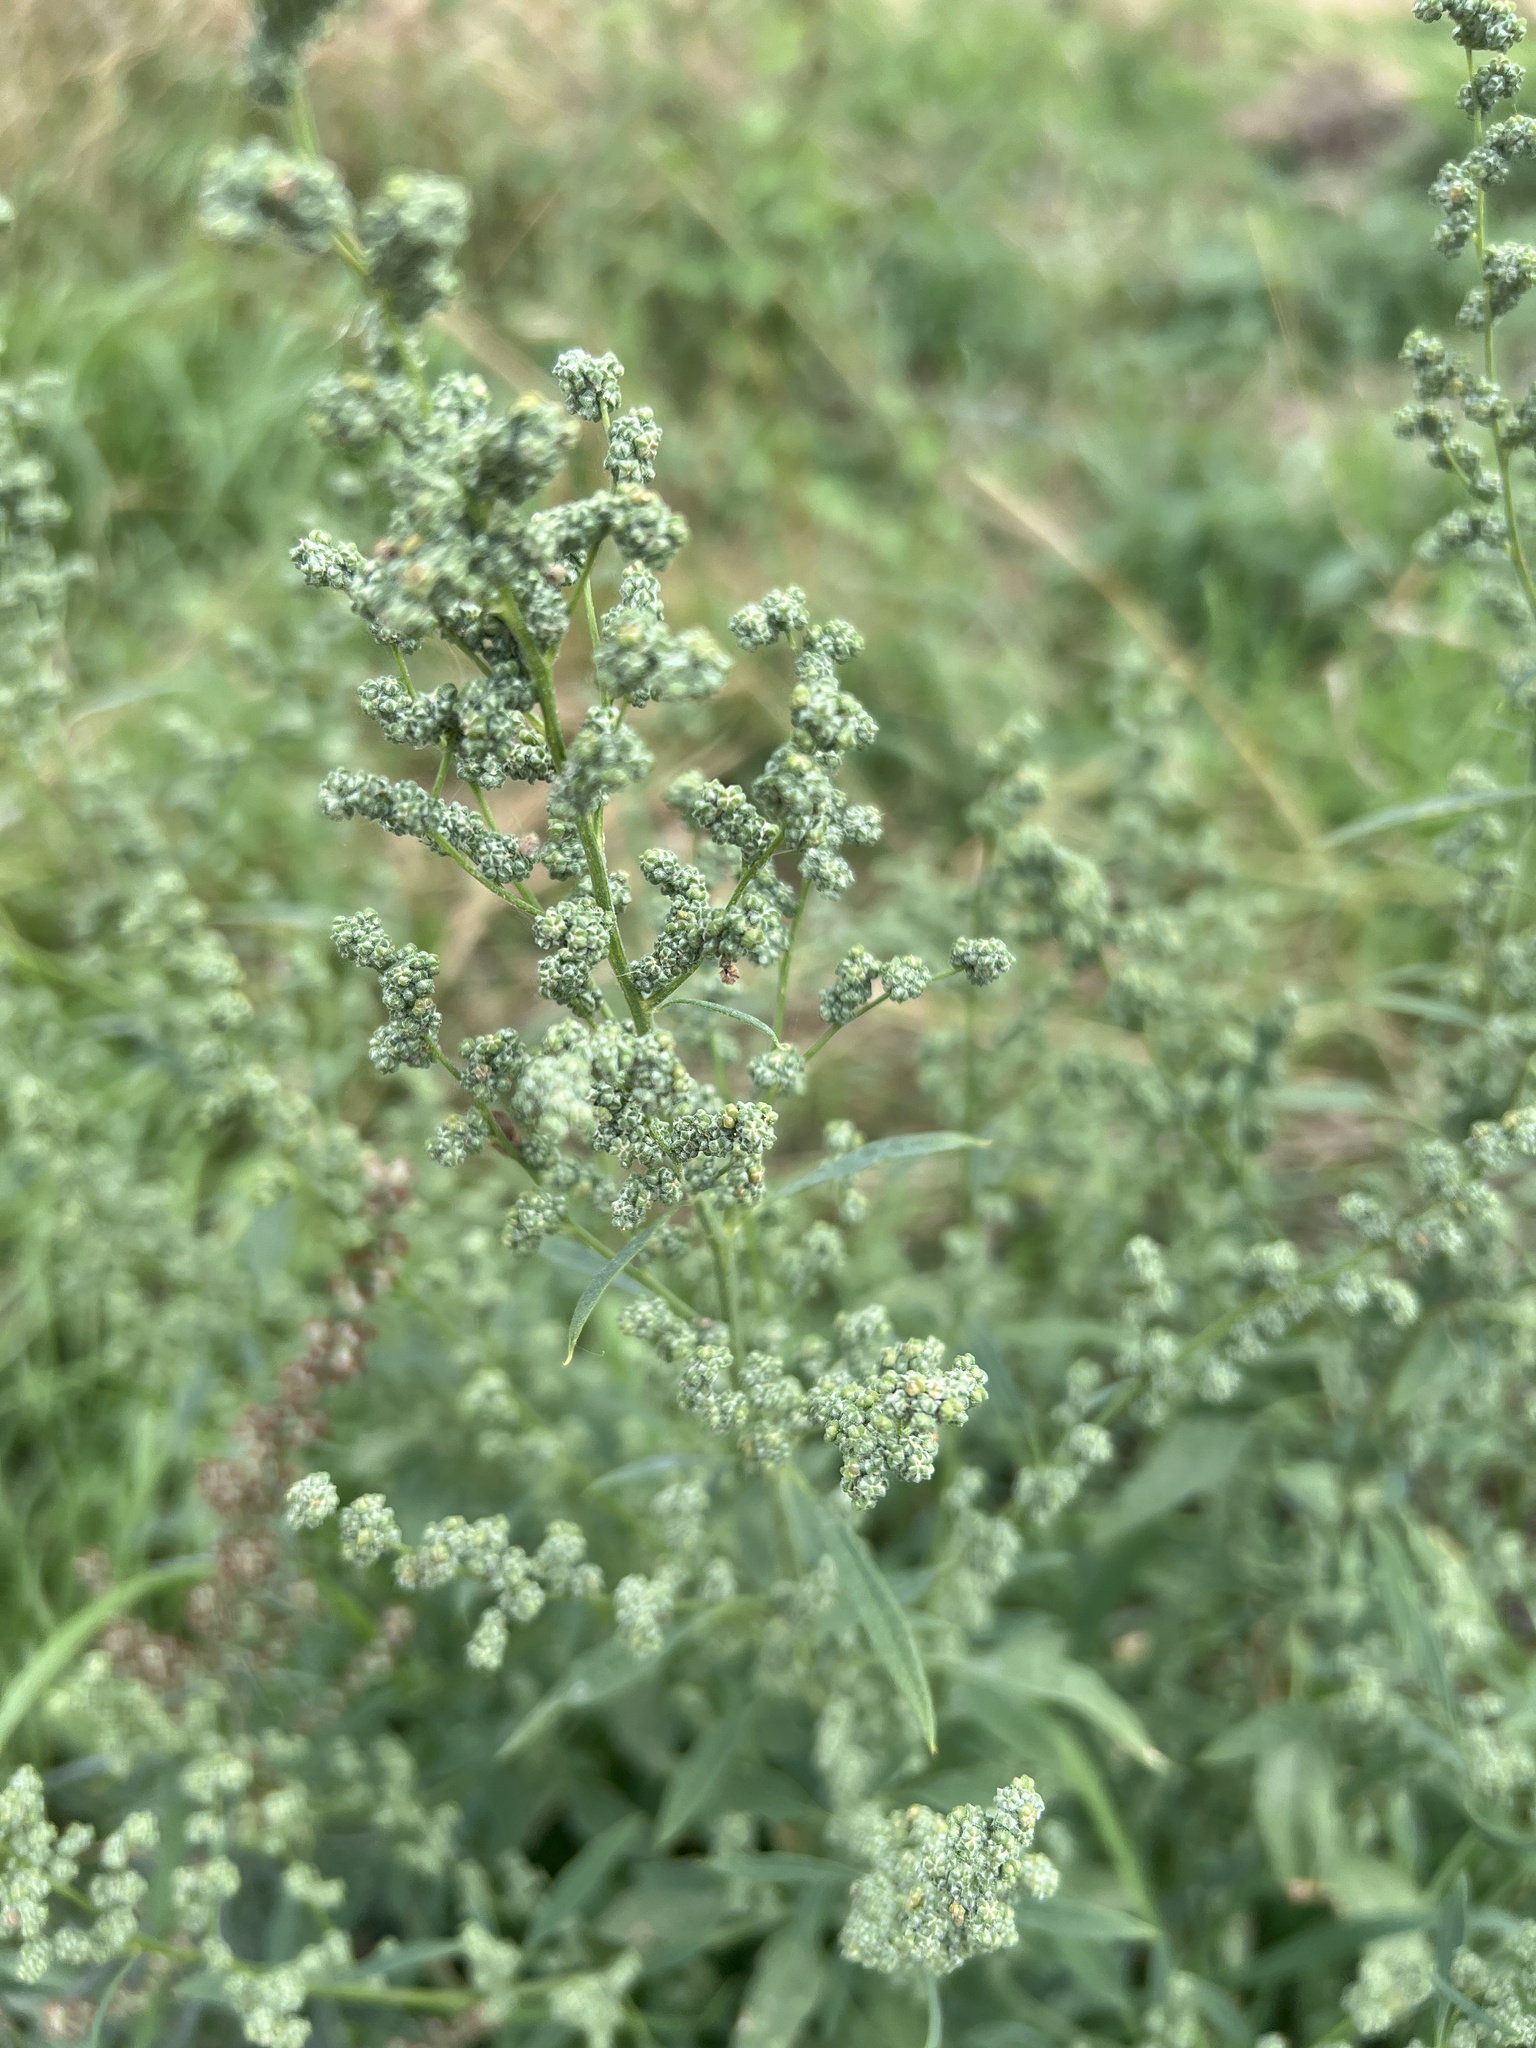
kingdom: Plantae
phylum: Tracheophyta
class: Magnoliopsida
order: Caryophyllales
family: Amaranthaceae
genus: Chenopodium
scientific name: Chenopodium album
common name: Fat-hen
